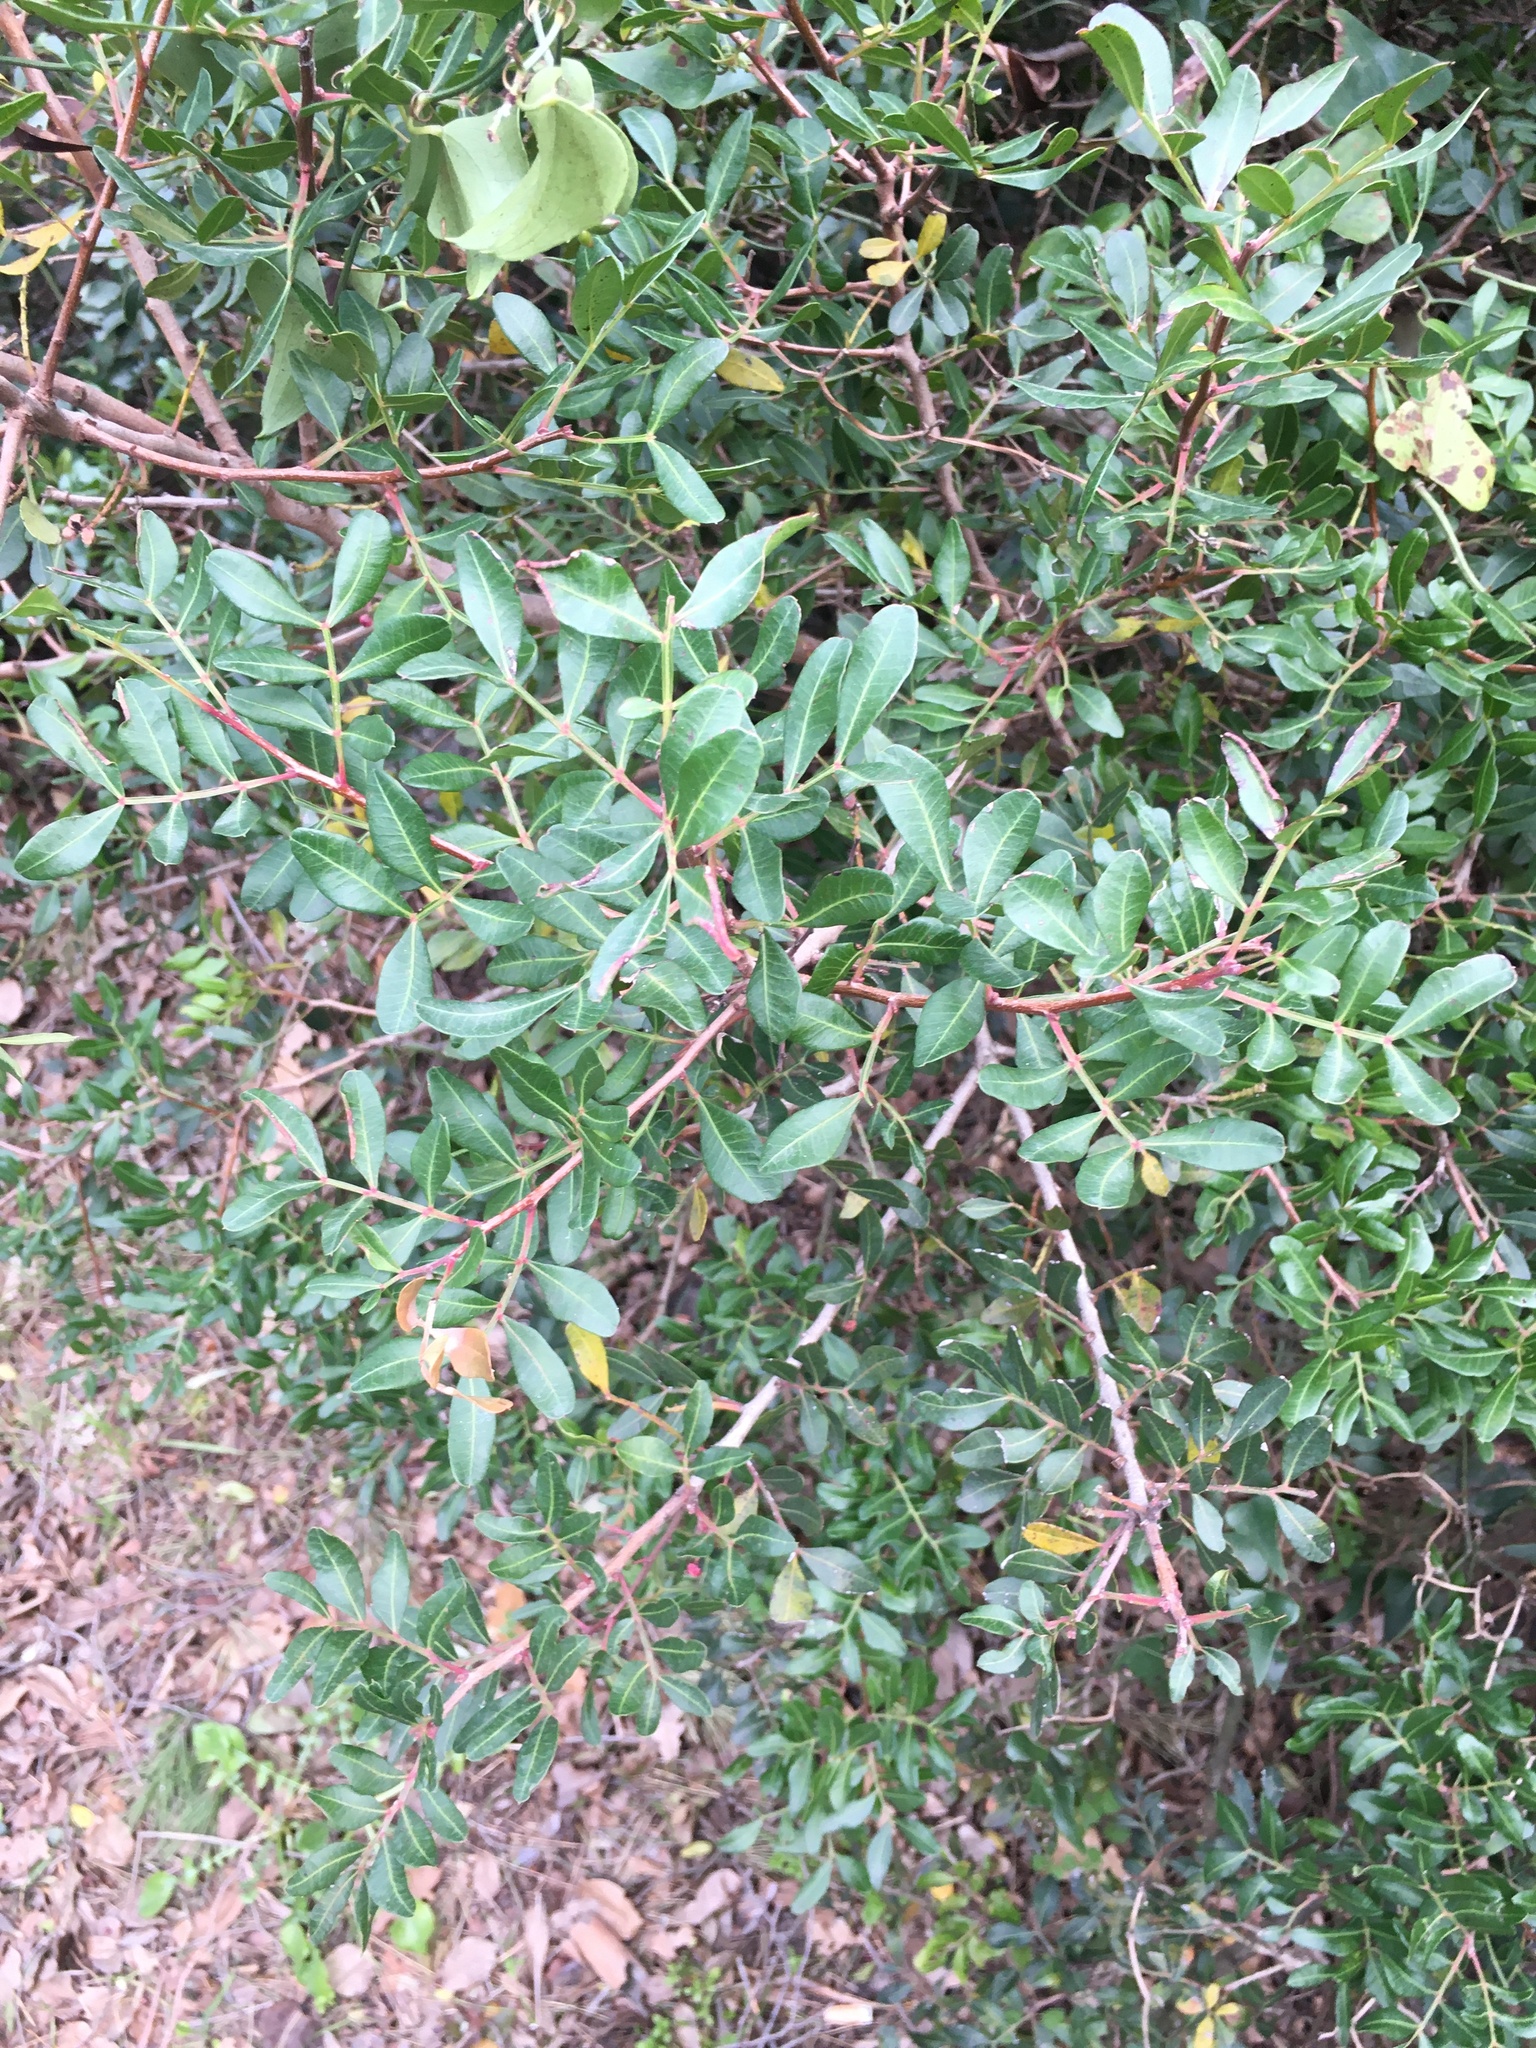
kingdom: Plantae
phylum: Tracheophyta
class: Magnoliopsida
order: Sapindales
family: Anacardiaceae
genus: Pistacia
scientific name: Pistacia lentiscus
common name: Lentisk
